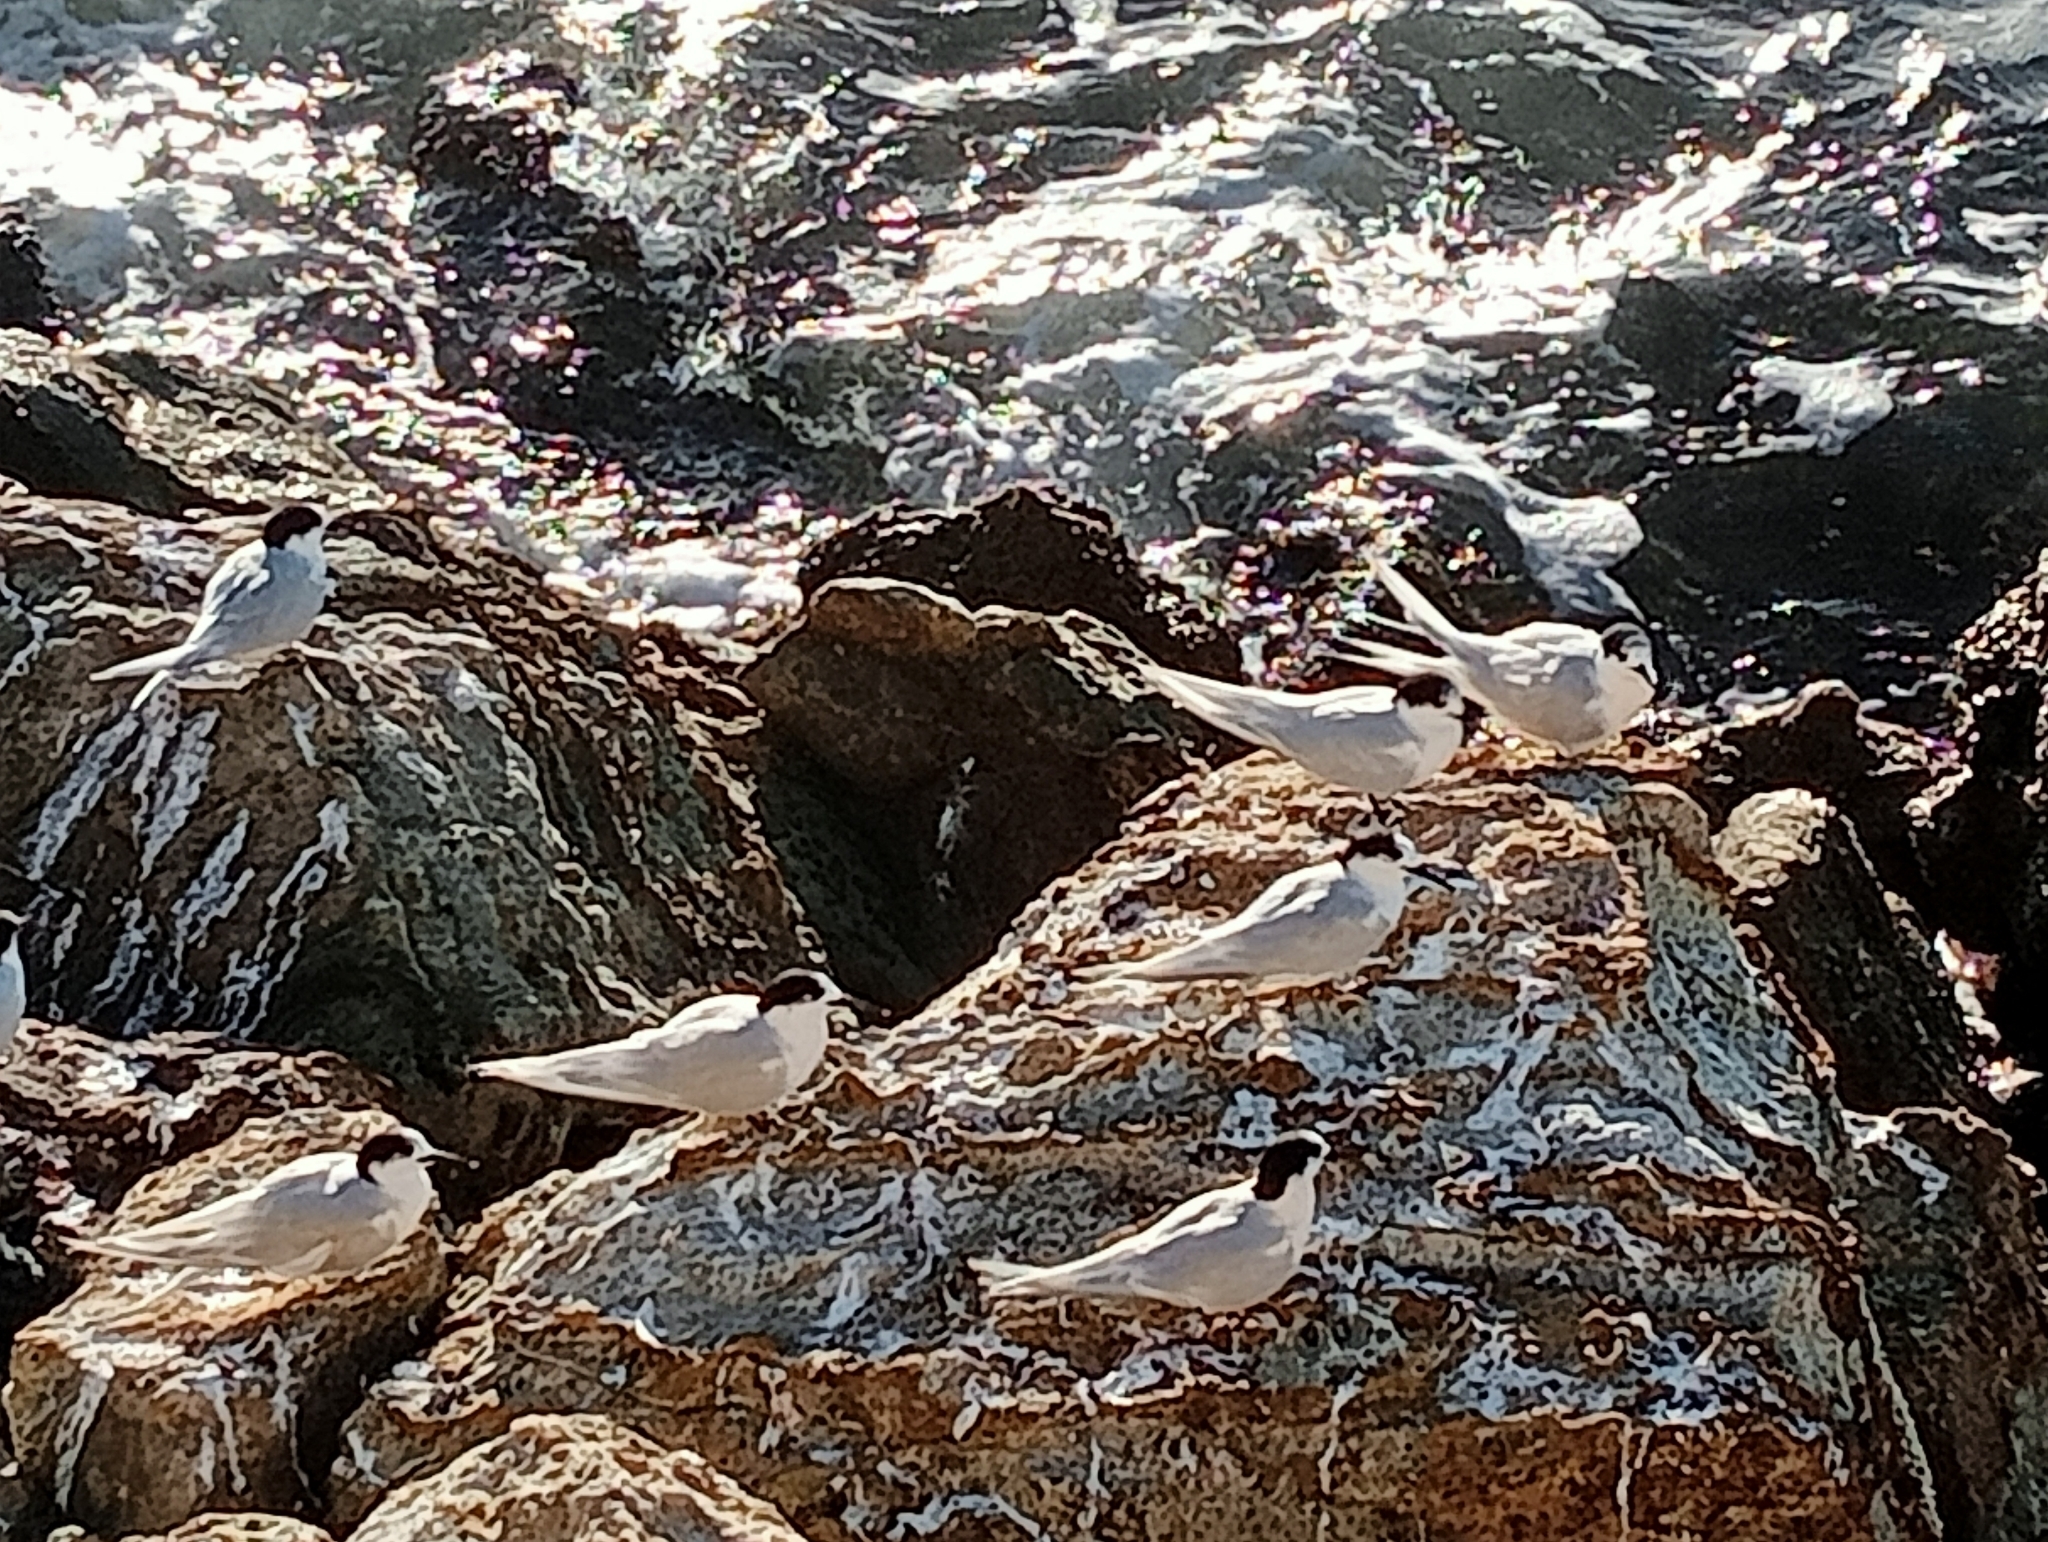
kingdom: Animalia
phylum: Chordata
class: Aves
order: Charadriiformes
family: Laridae
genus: Sterna
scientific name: Sterna striata
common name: White-fronted tern
